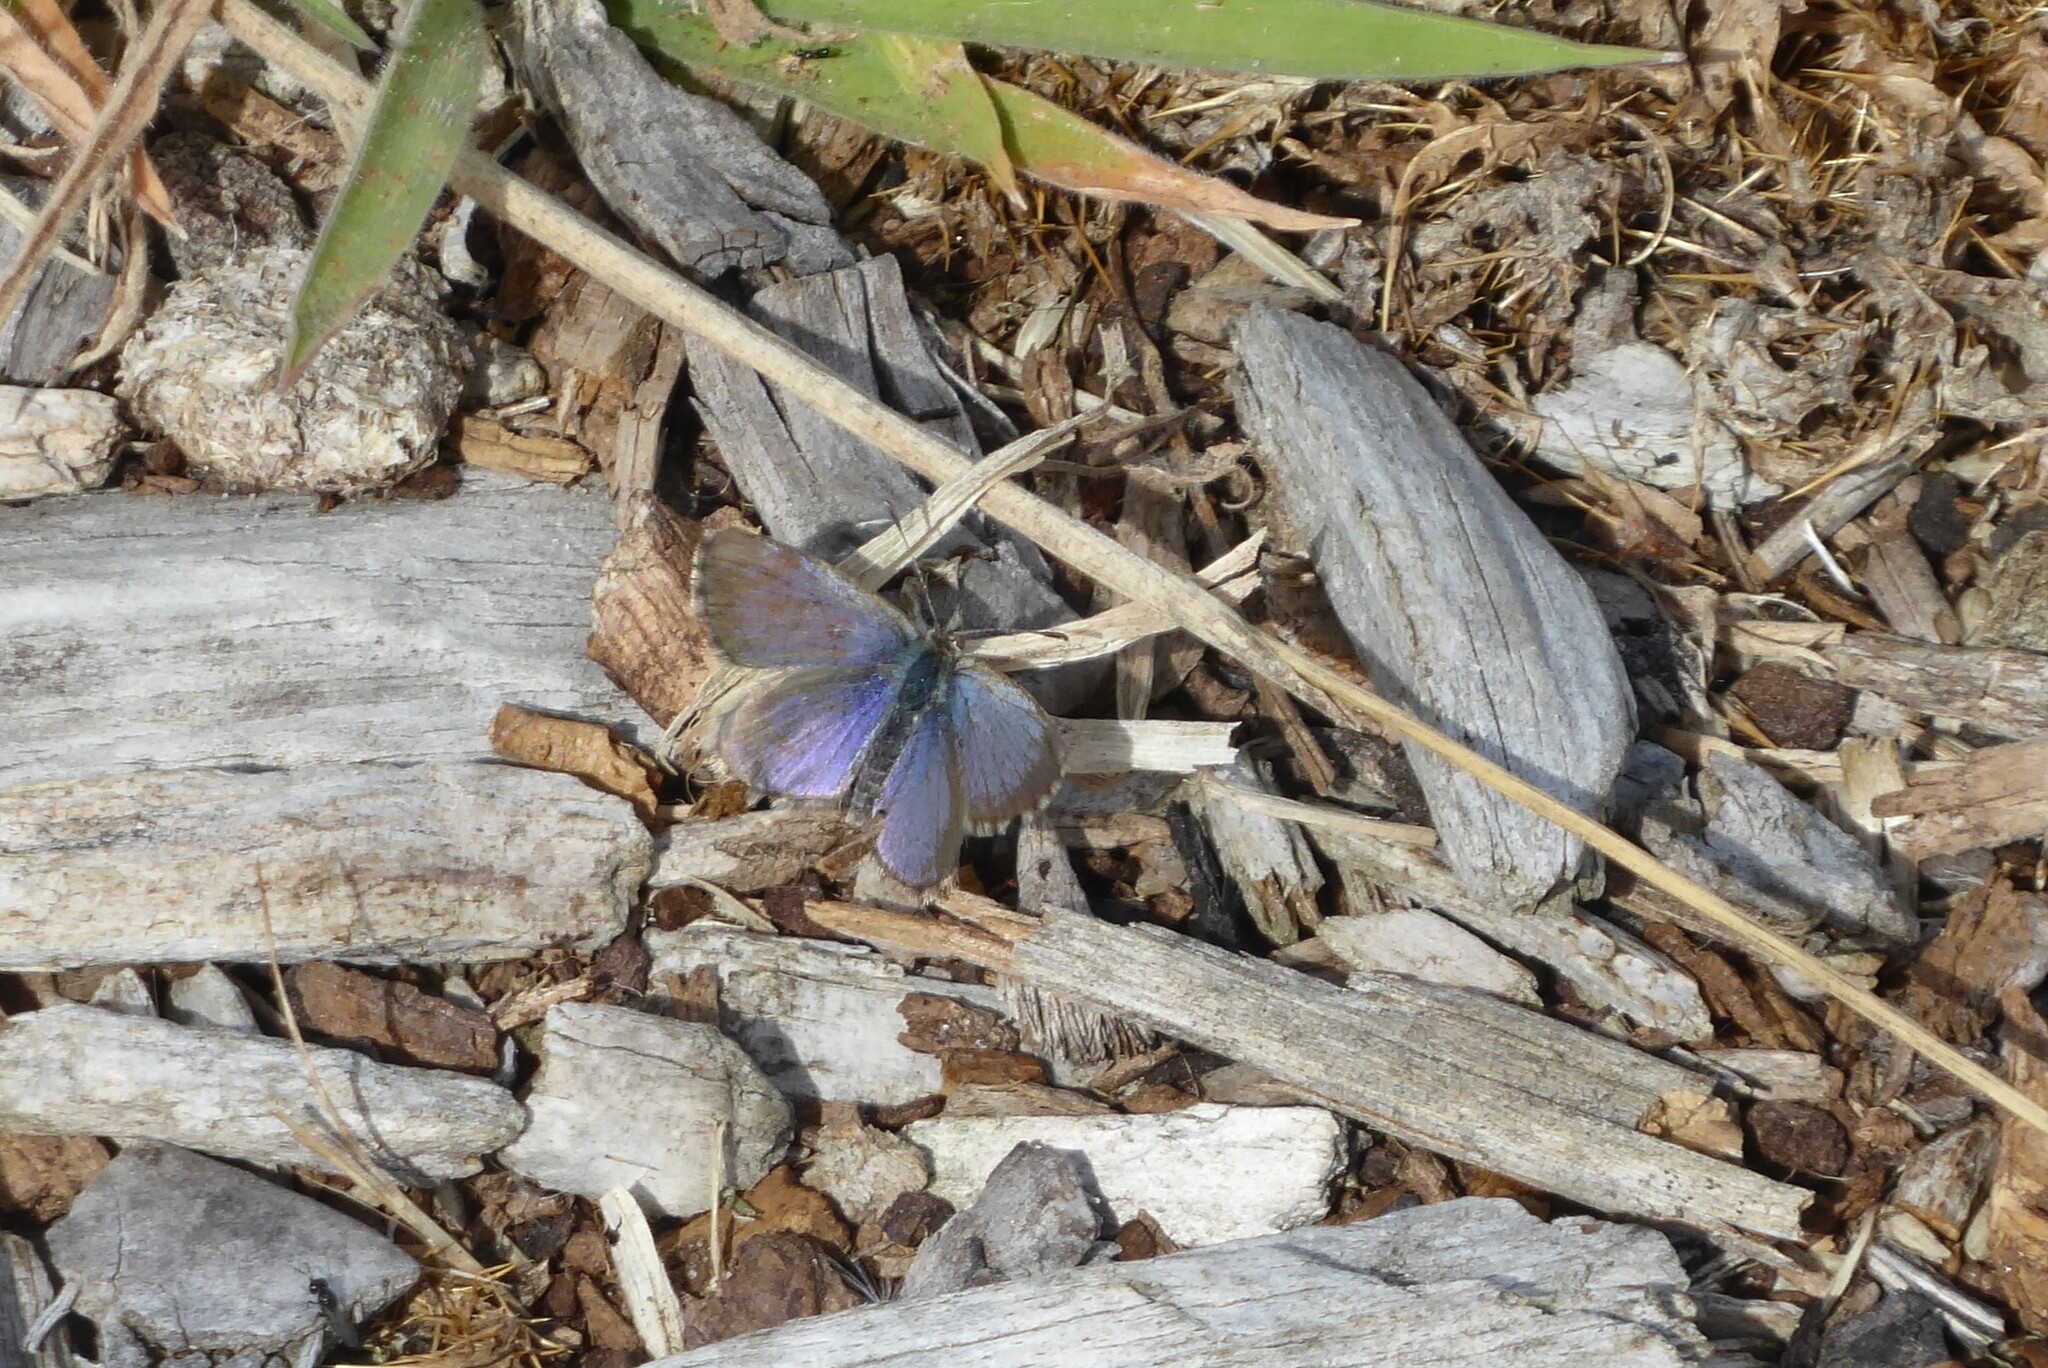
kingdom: Animalia
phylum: Arthropoda
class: Insecta
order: Lepidoptera
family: Lycaenidae
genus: Zizina
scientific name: Zizina oxleyi
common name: Southern blue
